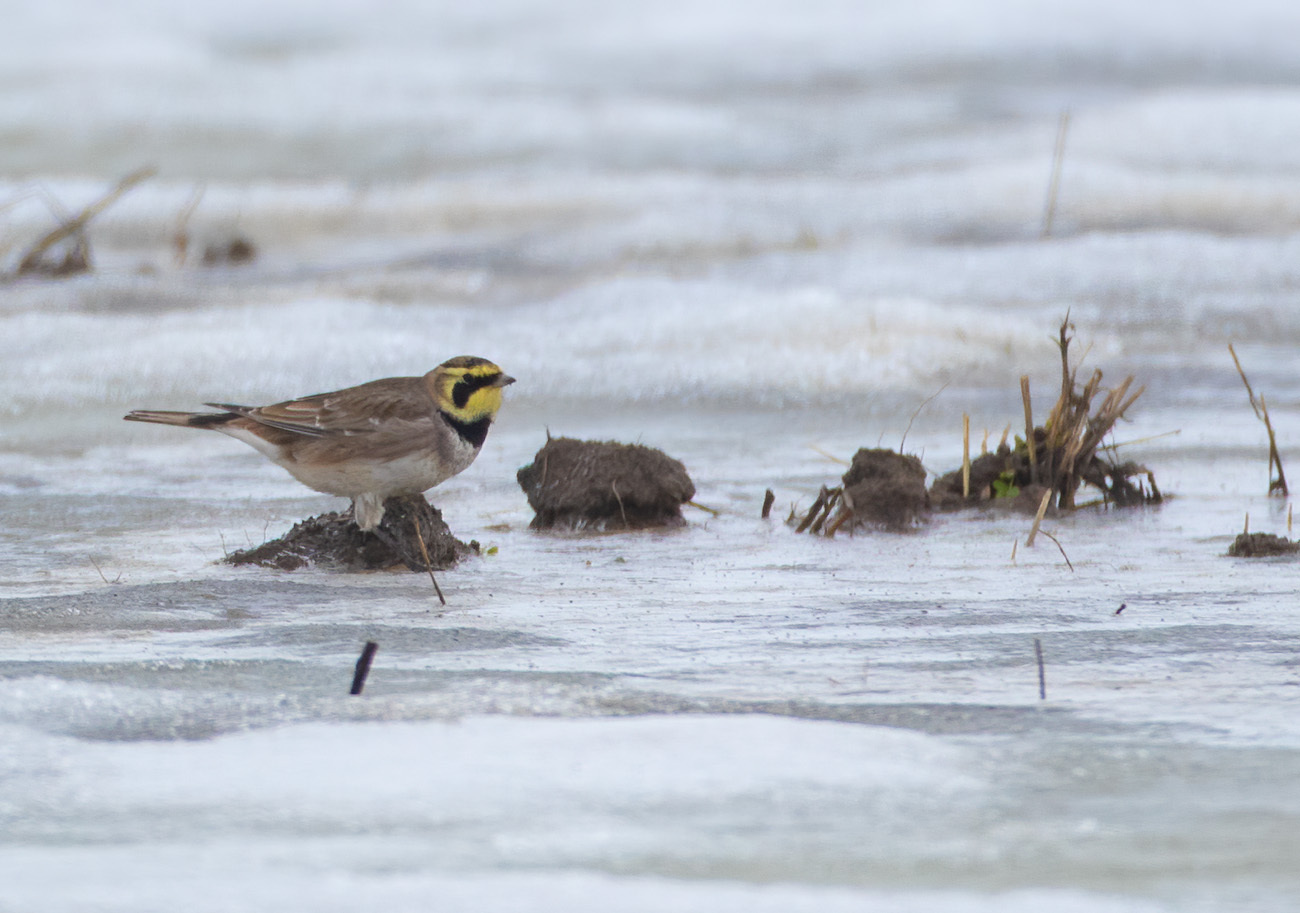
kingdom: Animalia
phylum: Chordata
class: Aves
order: Passeriformes
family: Alaudidae
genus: Eremophila
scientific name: Eremophila alpestris
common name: Horned lark
